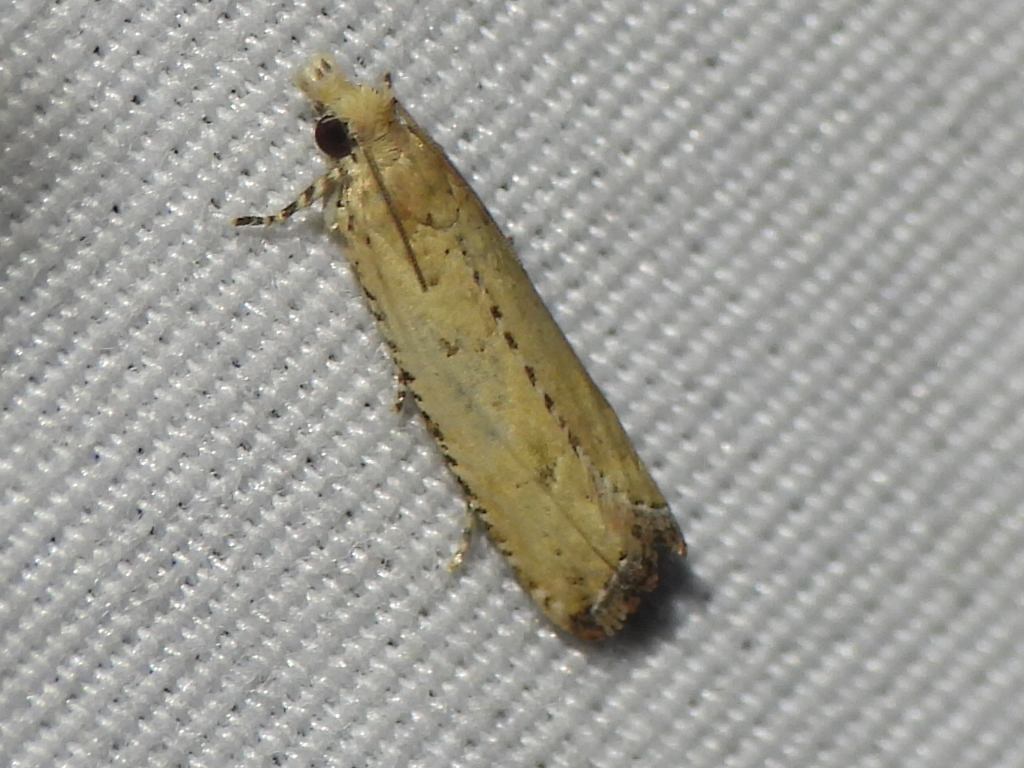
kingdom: Animalia
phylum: Arthropoda
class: Insecta
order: Lepidoptera
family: Tortricidae
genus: Bactra
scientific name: Bactra verutana
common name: Javelin moth
